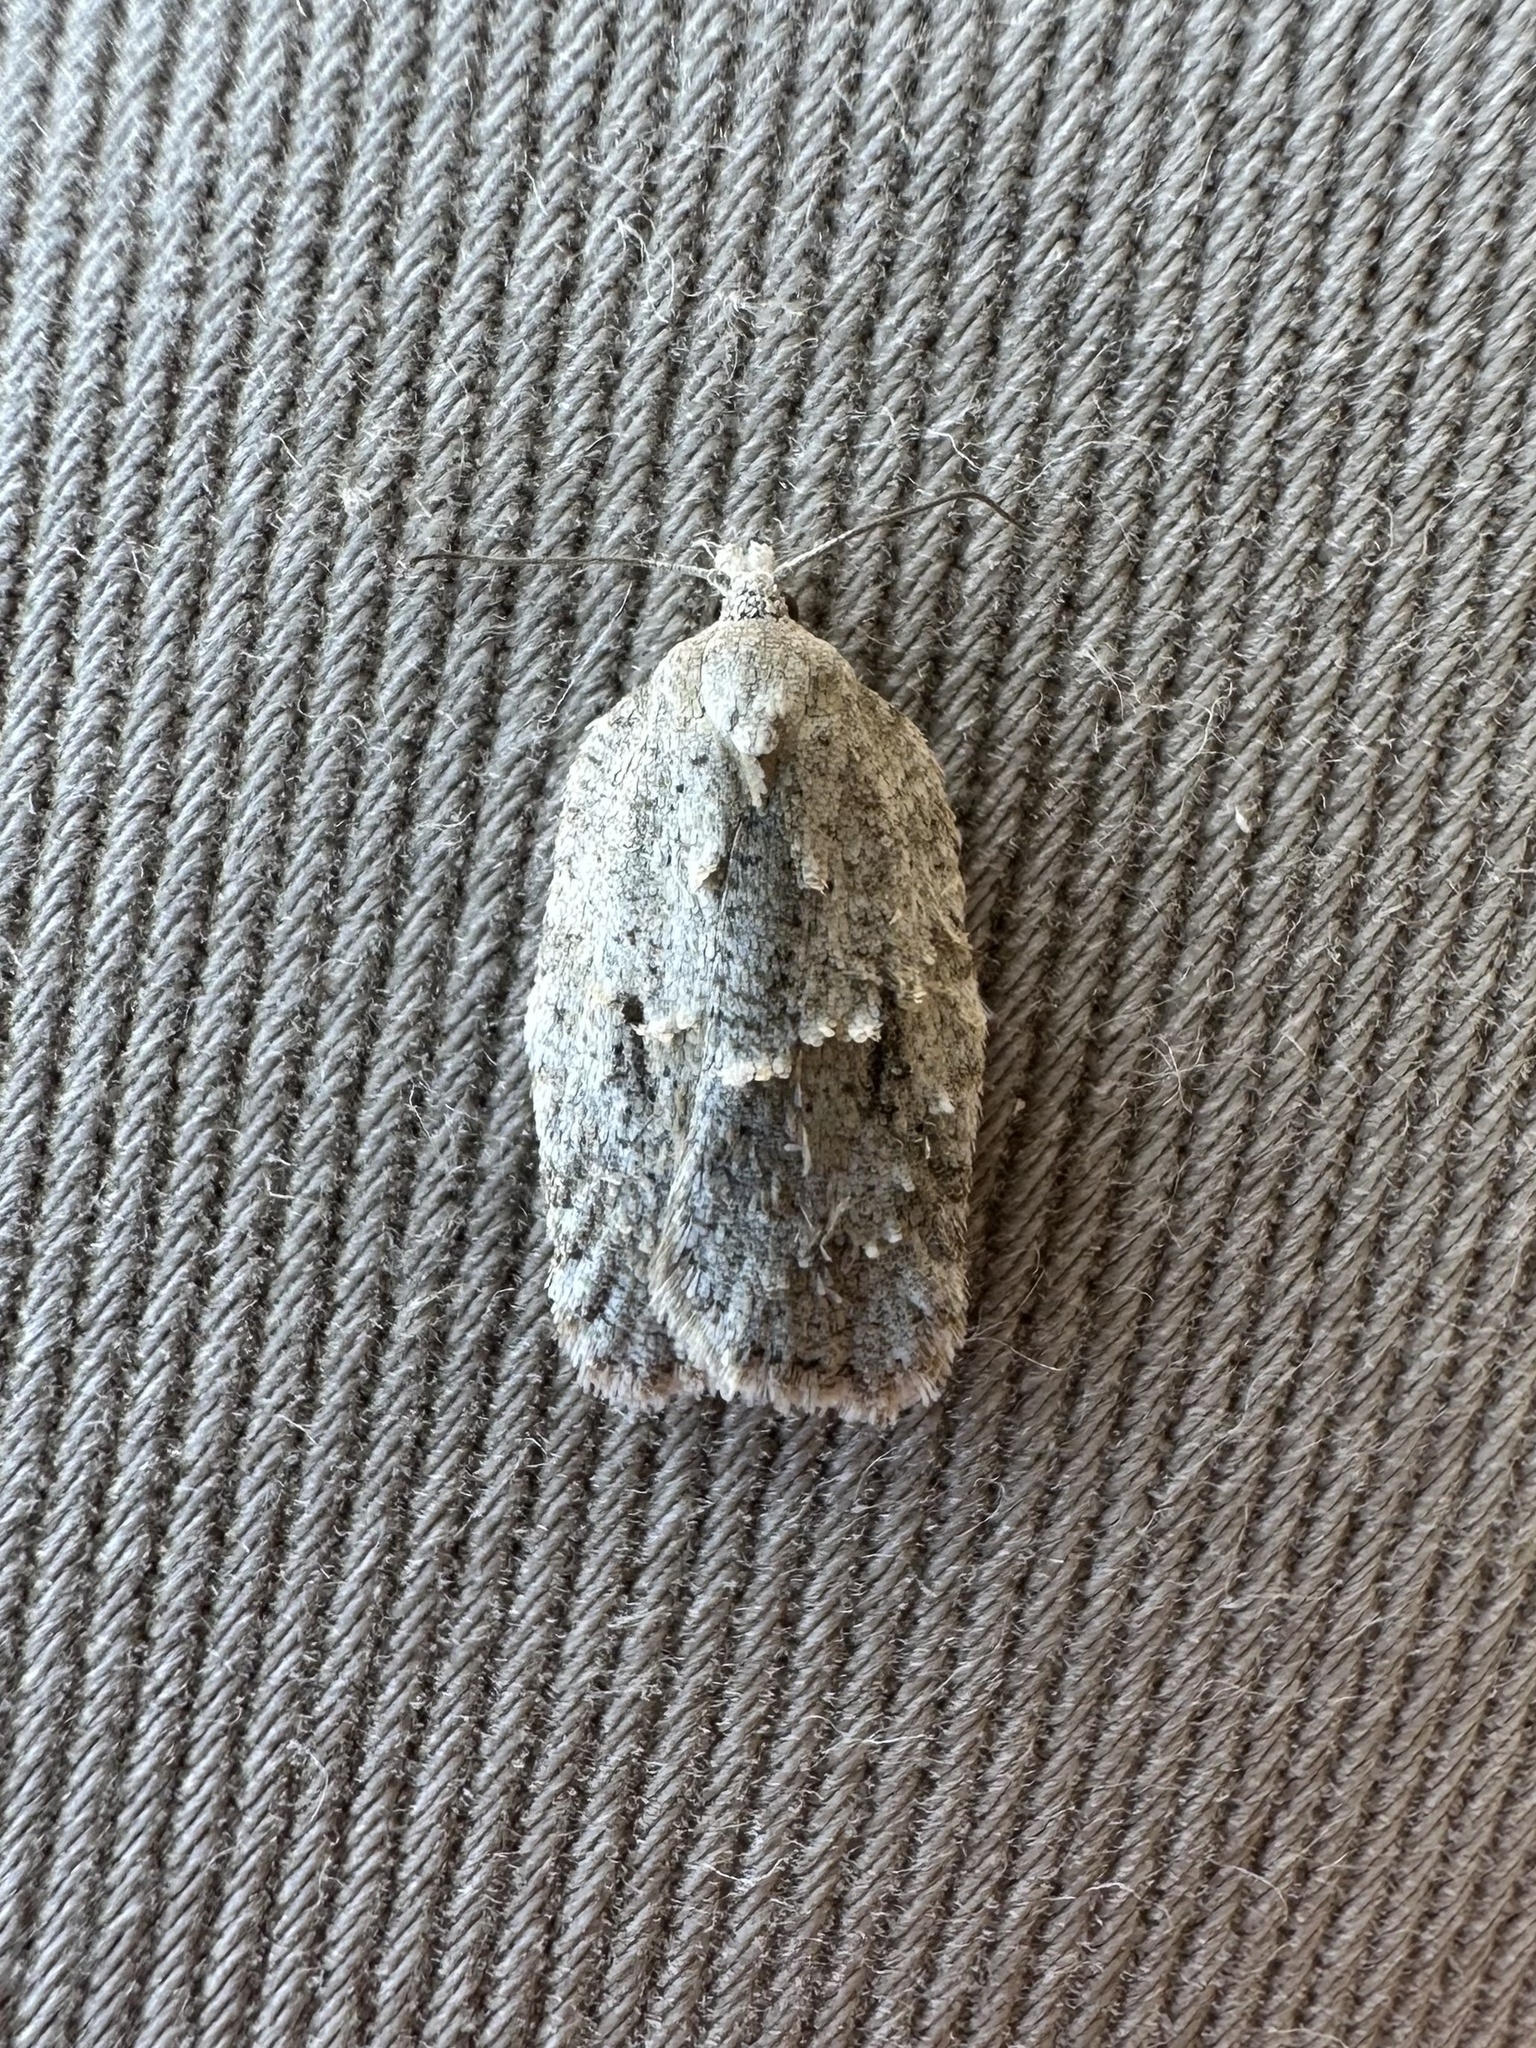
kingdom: Animalia
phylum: Arthropoda
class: Insecta
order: Lepidoptera
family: Tortricidae
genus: Acleris
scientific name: Acleris placidana
